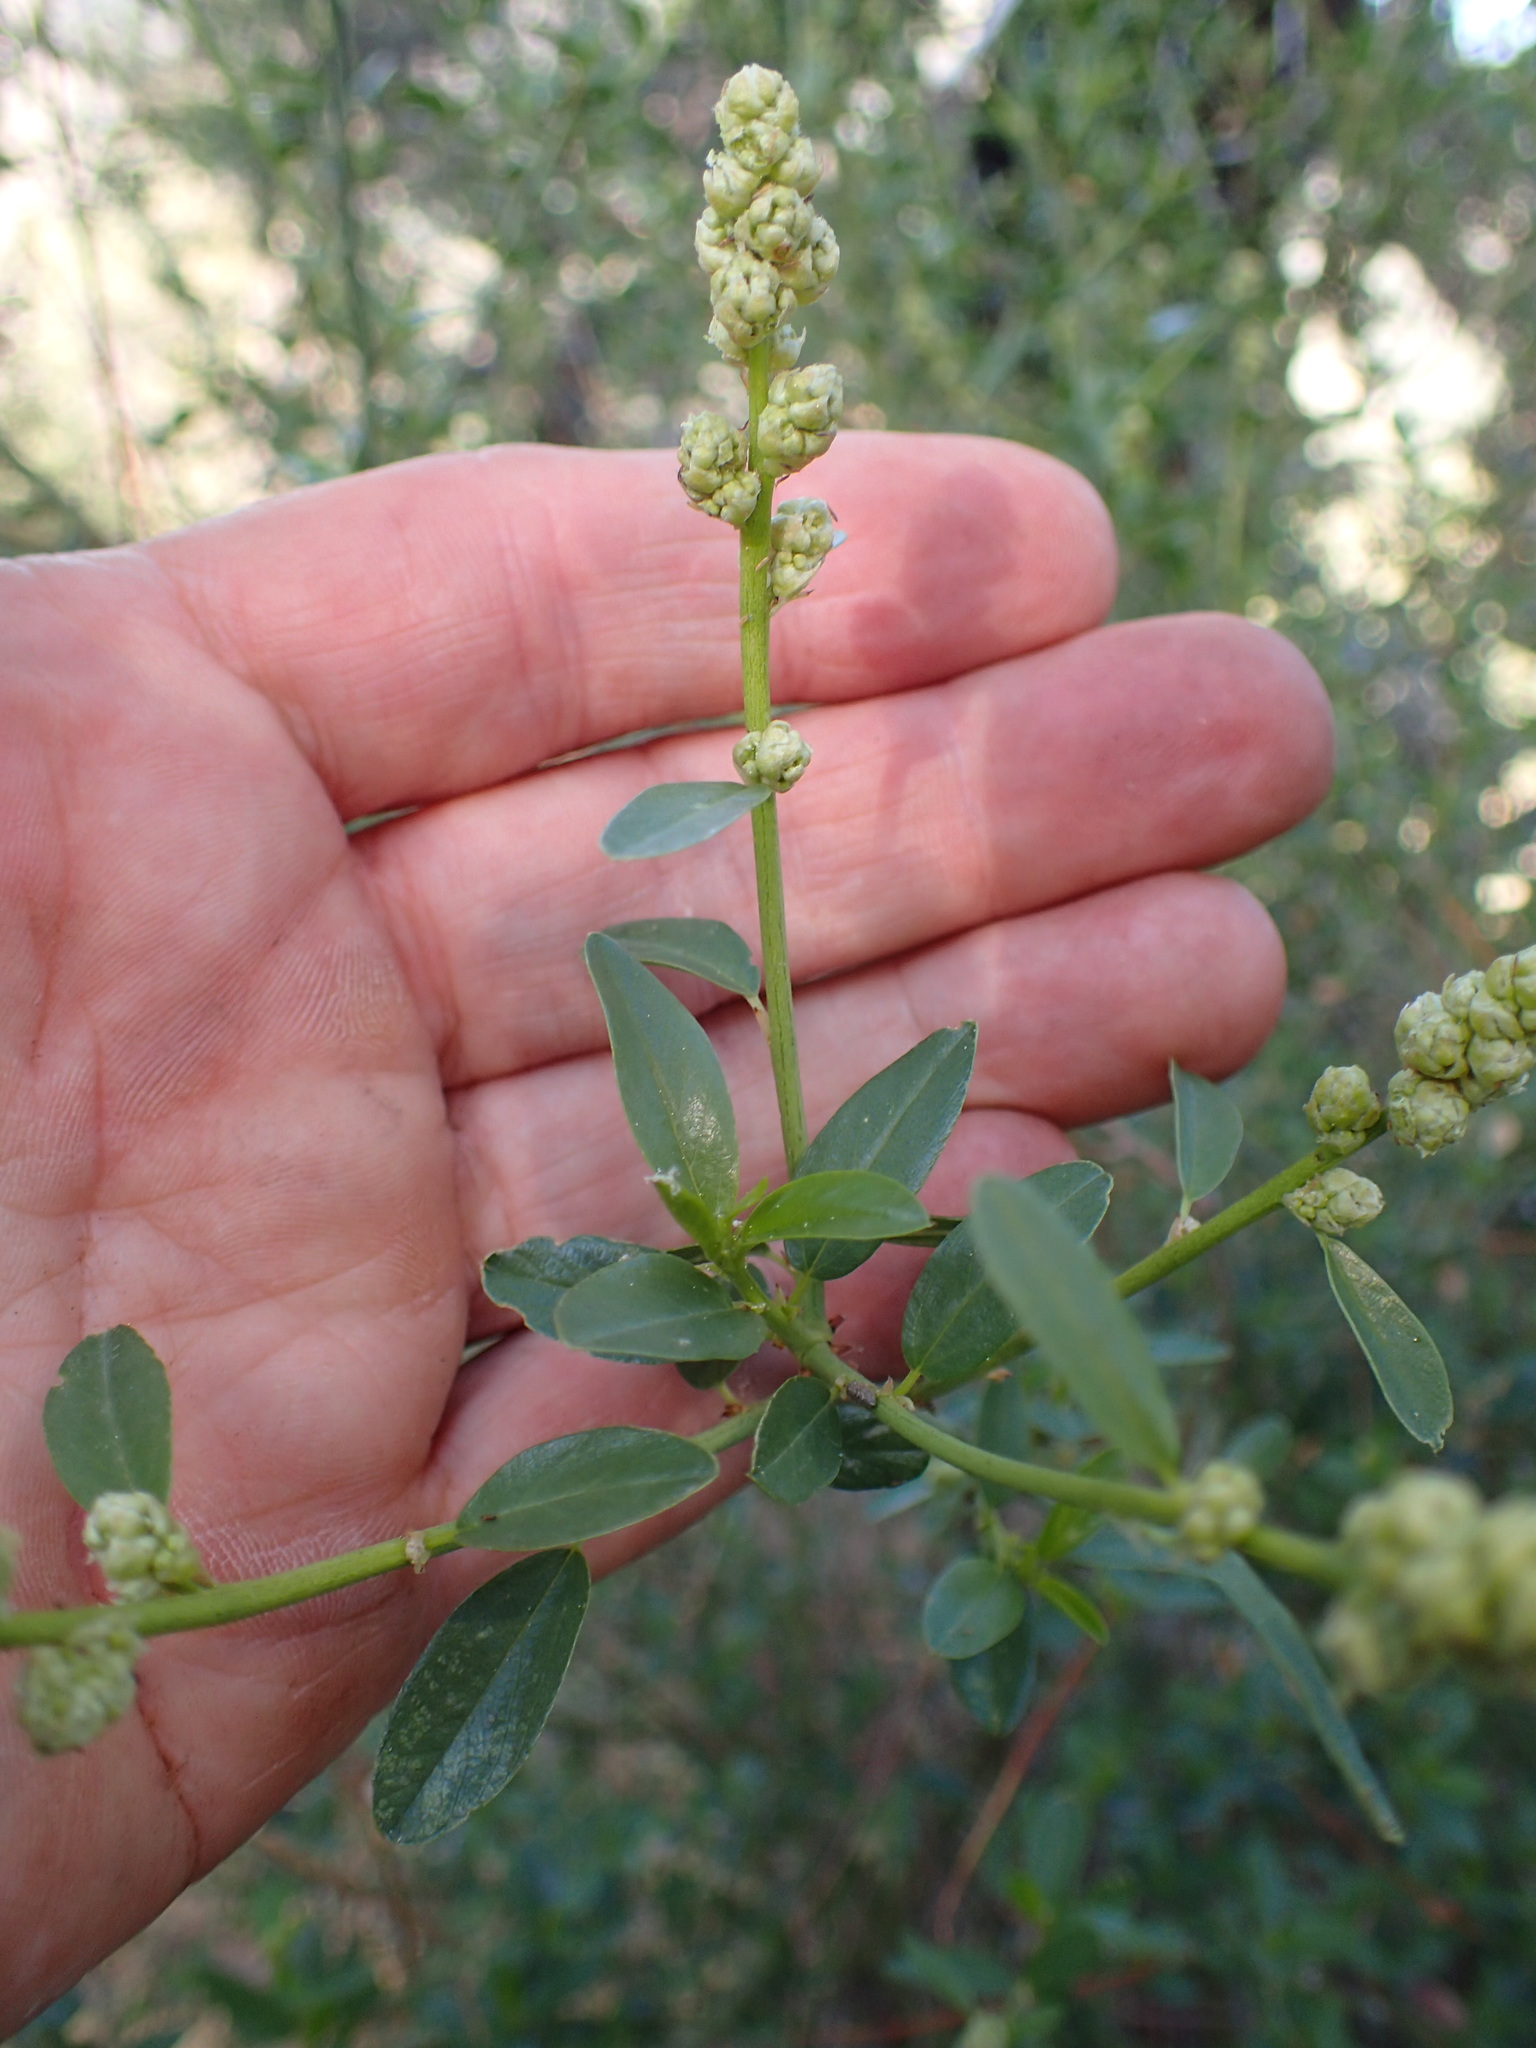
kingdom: Plantae
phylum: Tracheophyta
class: Magnoliopsida
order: Rosales
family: Rhamnaceae
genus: Ceanothus
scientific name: Ceanothus palmeri
